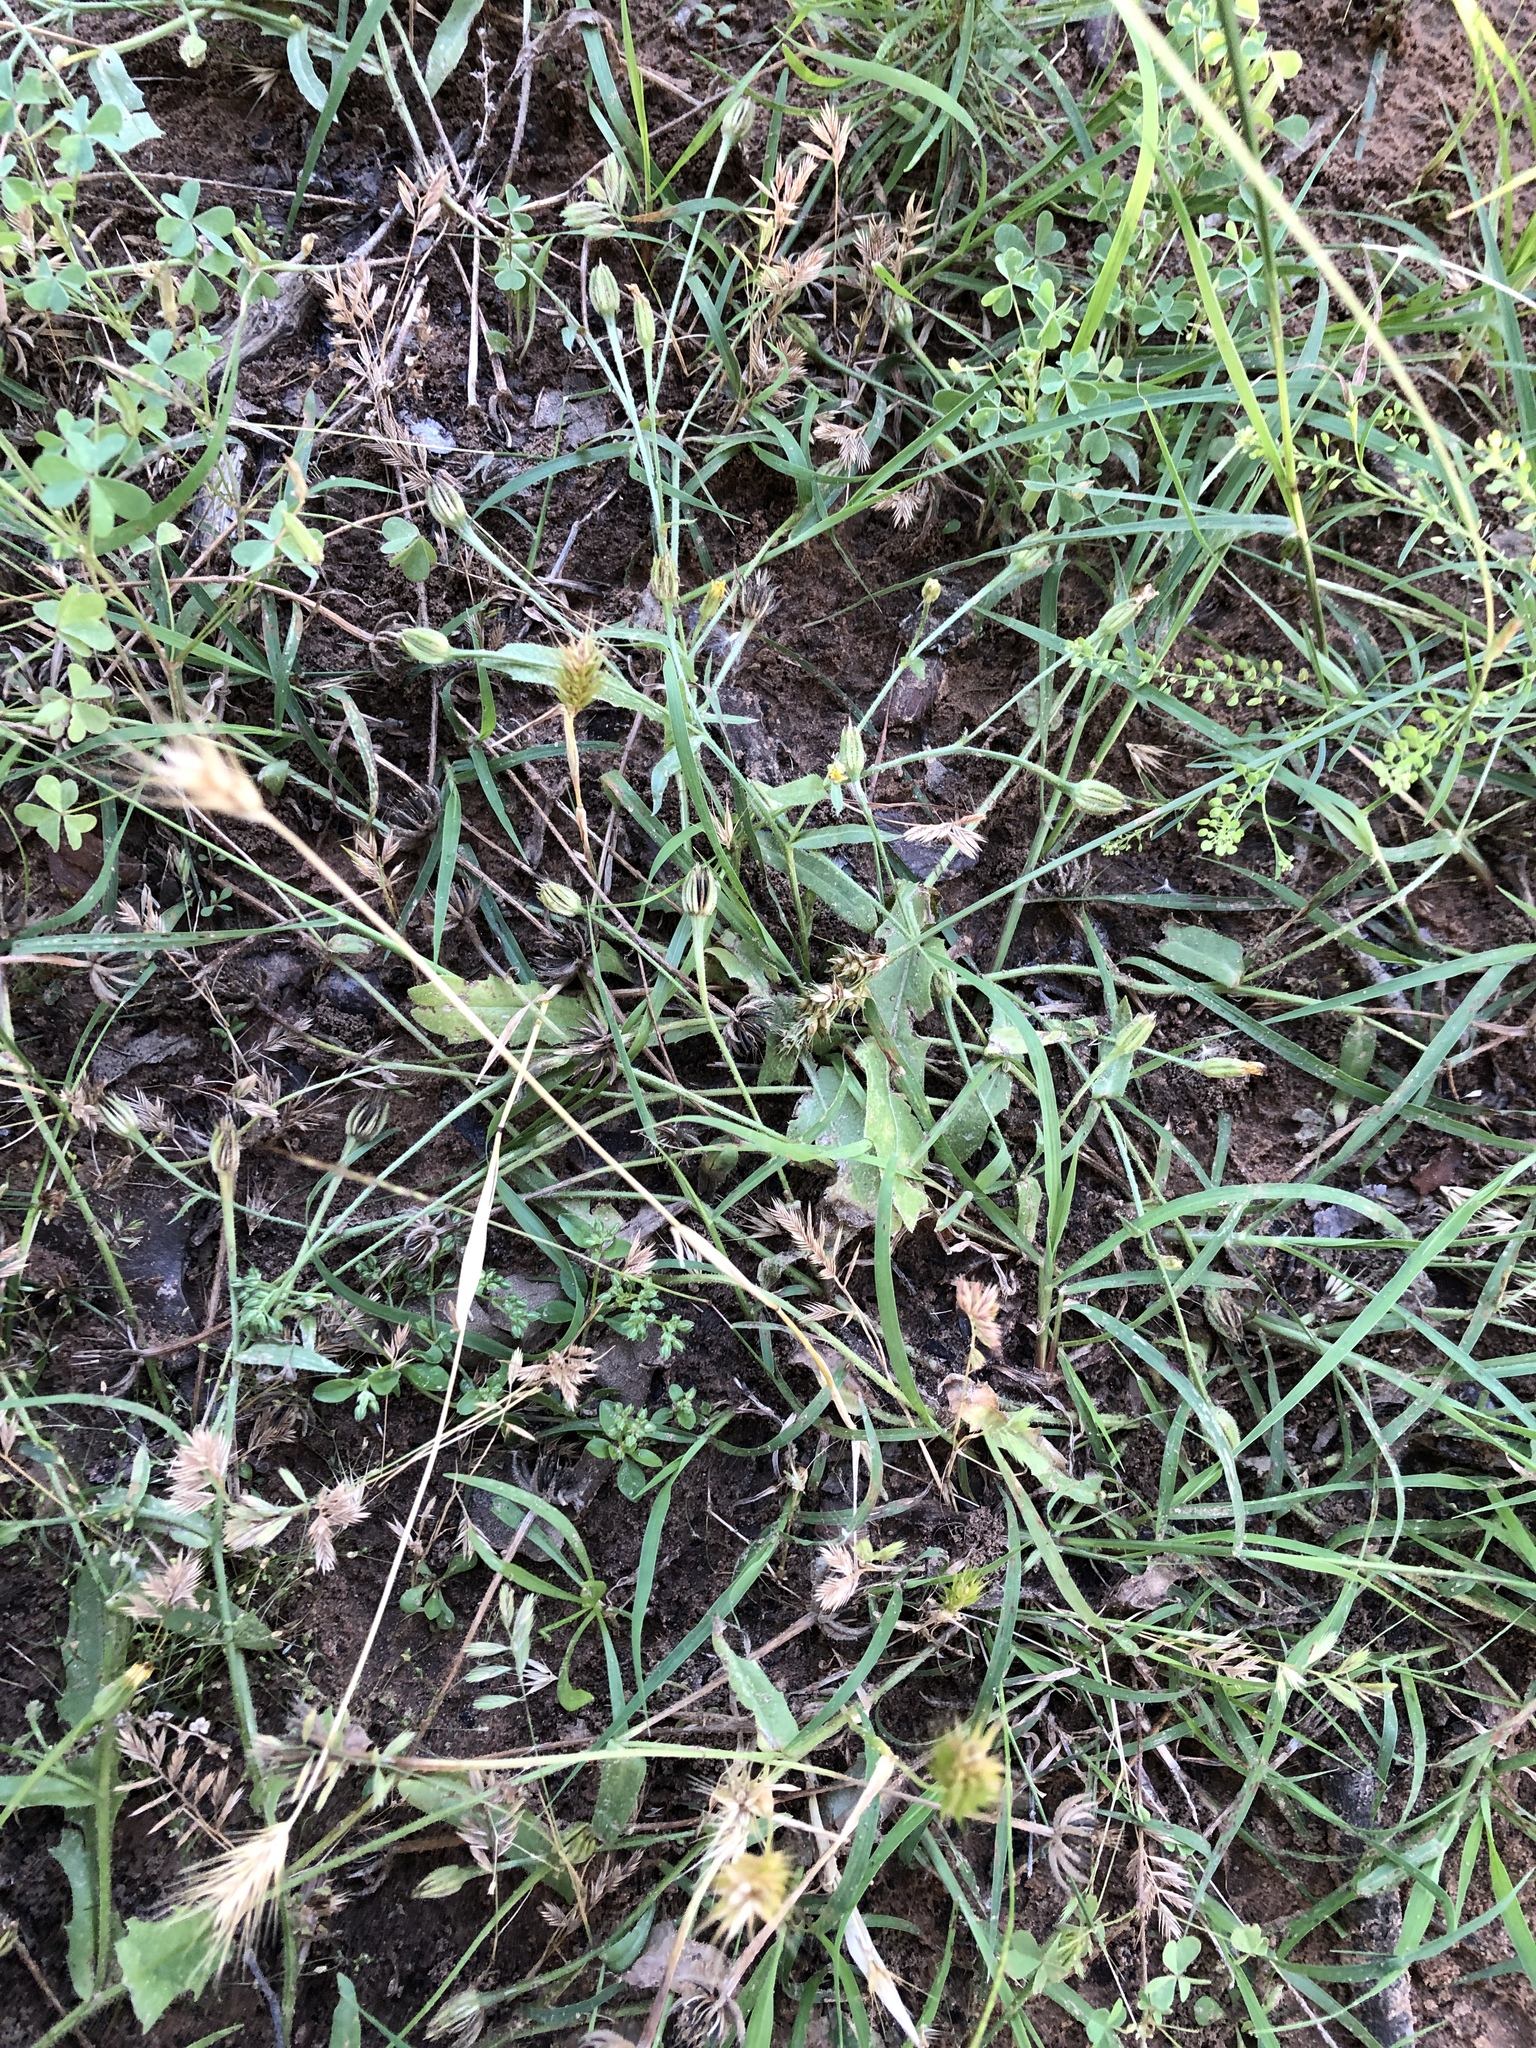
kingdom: Plantae
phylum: Tracheophyta
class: Magnoliopsida
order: Asterales
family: Asteraceae
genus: Hedypnois
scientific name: Hedypnois rhagadioloides
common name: Cretan weed
